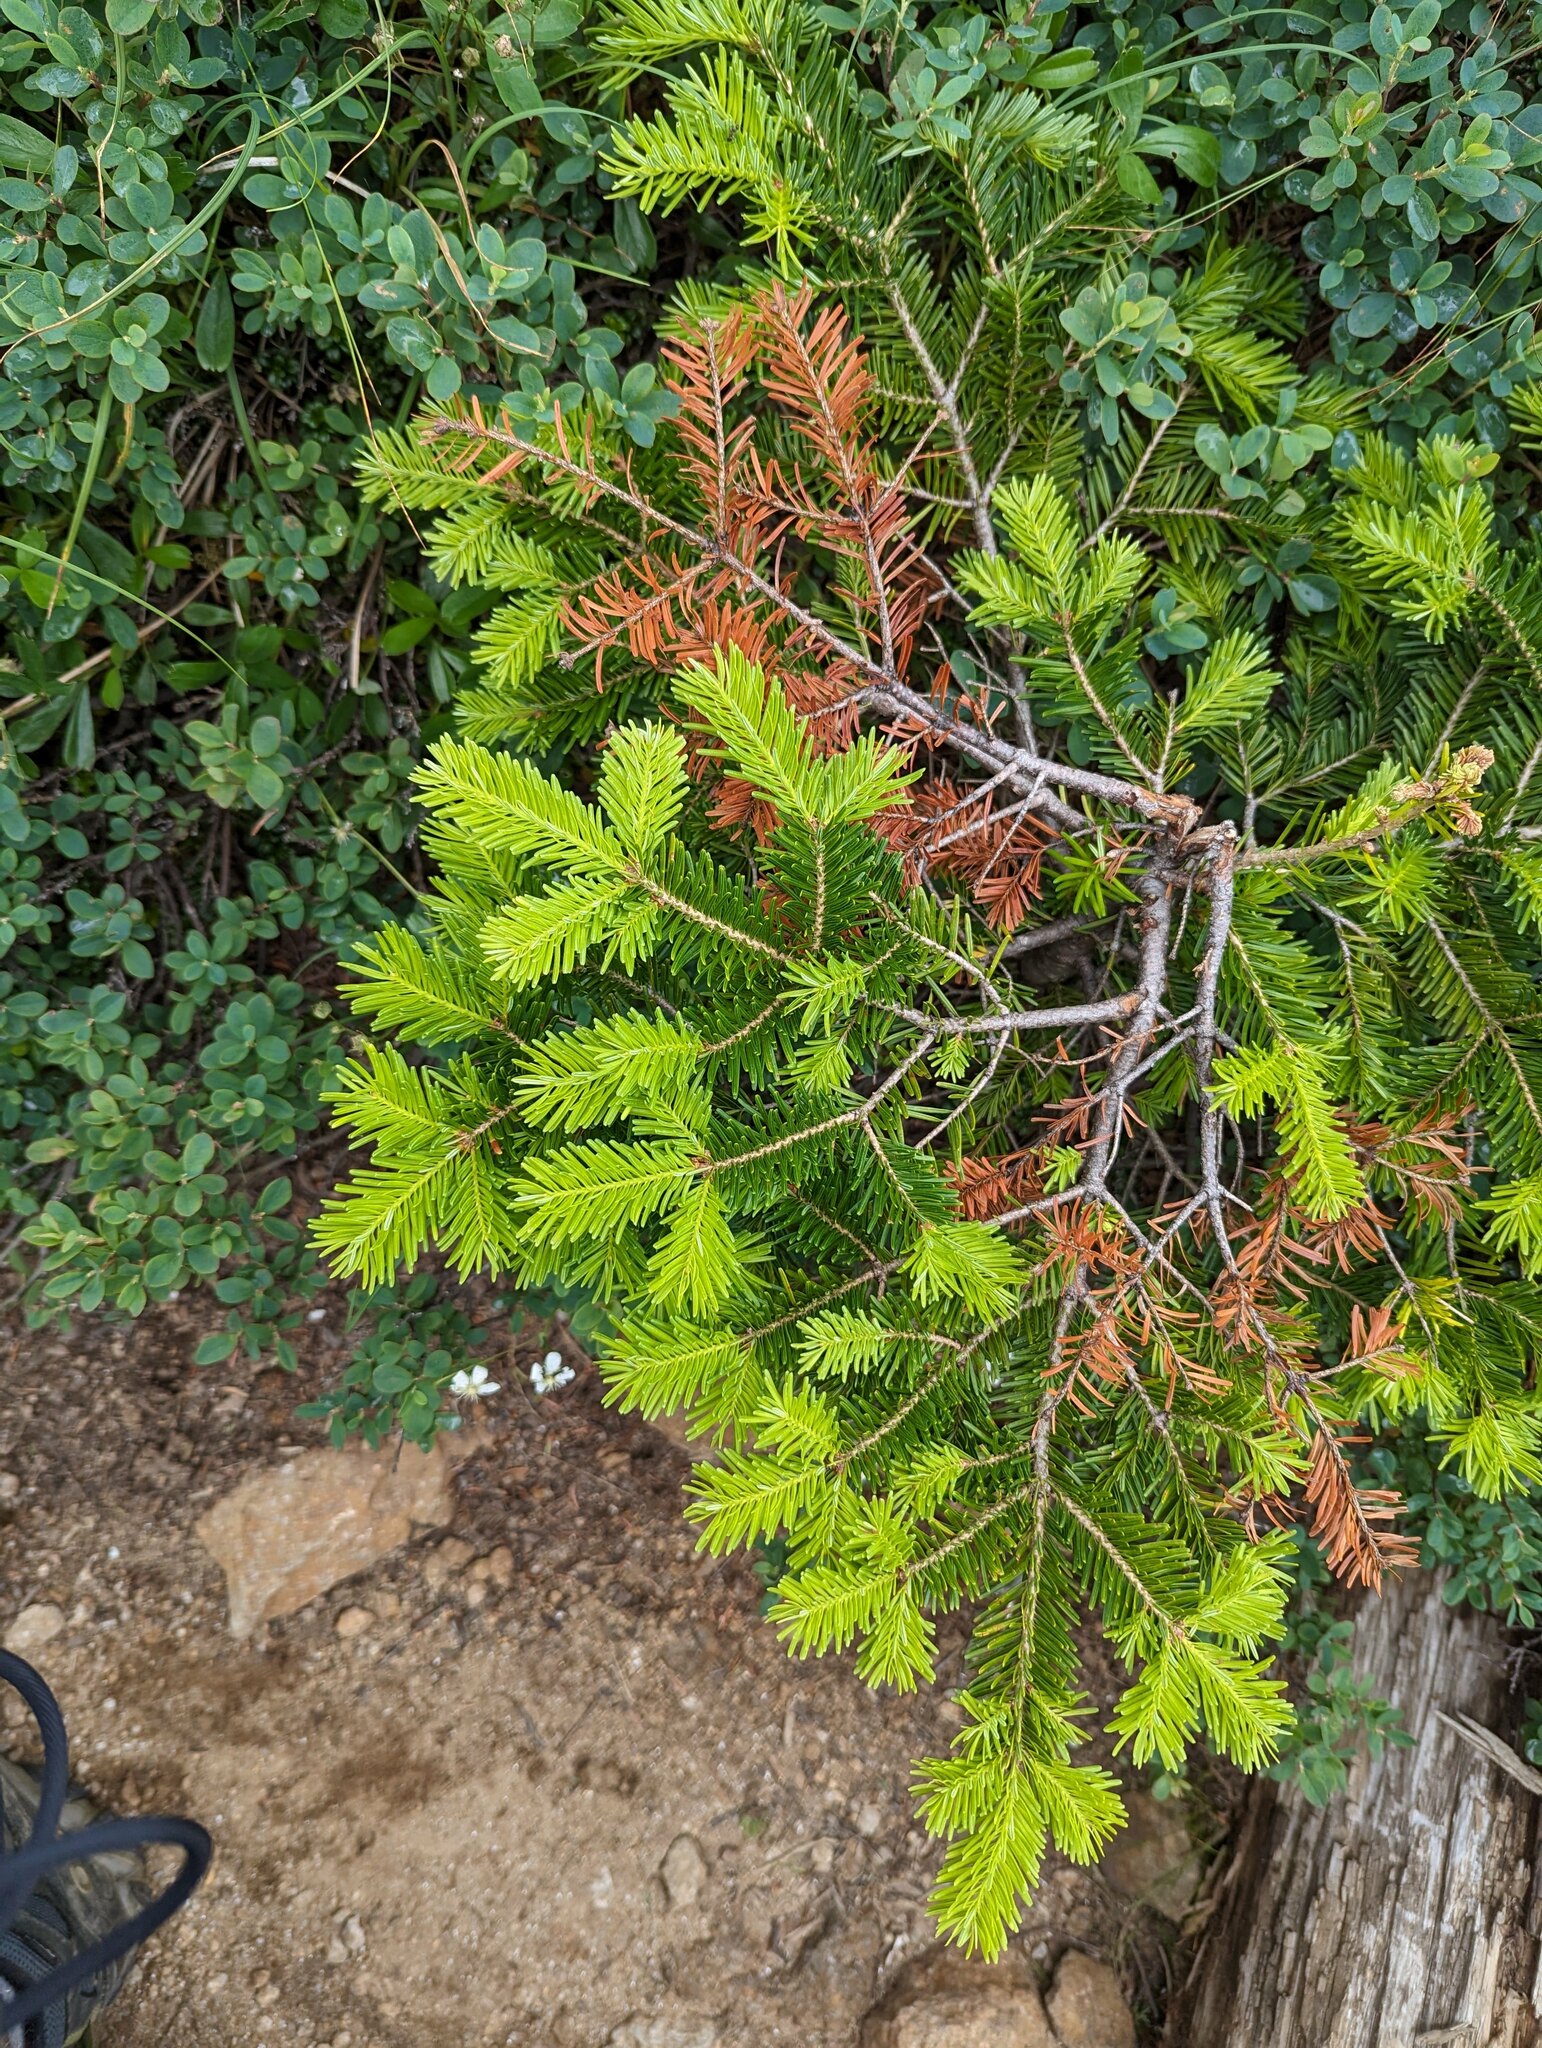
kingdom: Plantae
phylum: Tracheophyta
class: Pinopsida
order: Pinales
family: Pinaceae
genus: Abies
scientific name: Abies balsamea
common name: Balsam fir
